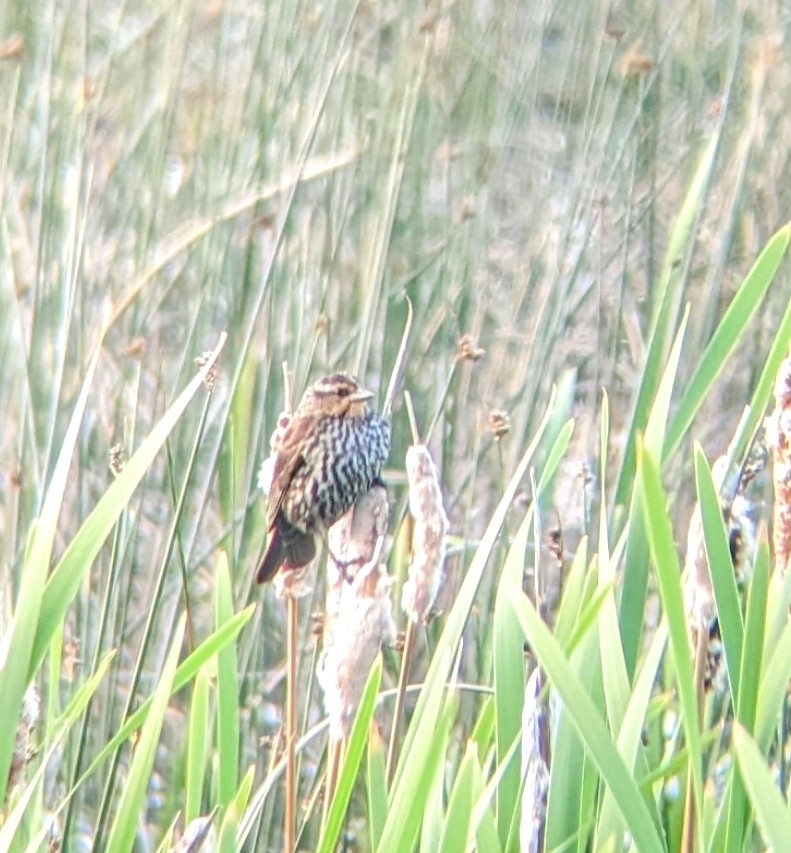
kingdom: Animalia
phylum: Chordata
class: Aves
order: Passeriformes
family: Icteridae
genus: Agelaius
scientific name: Agelaius phoeniceus
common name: Red-winged blackbird
